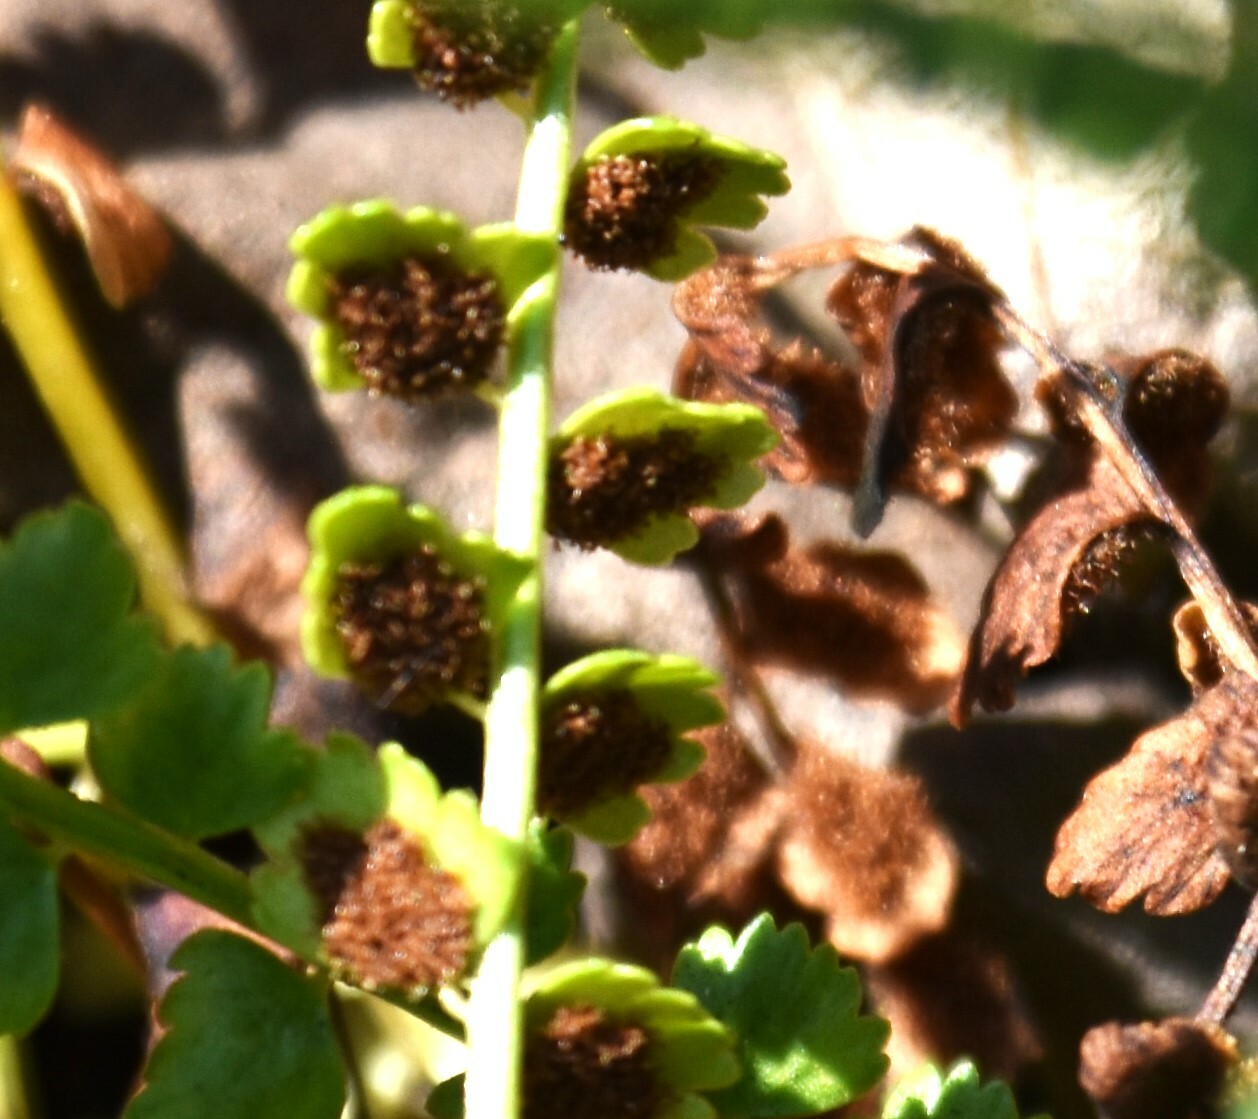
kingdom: Plantae
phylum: Tracheophyta
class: Polypodiopsida
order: Polypodiales
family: Aspleniaceae
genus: Asplenium
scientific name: Asplenium viride
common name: Green spleenwort
